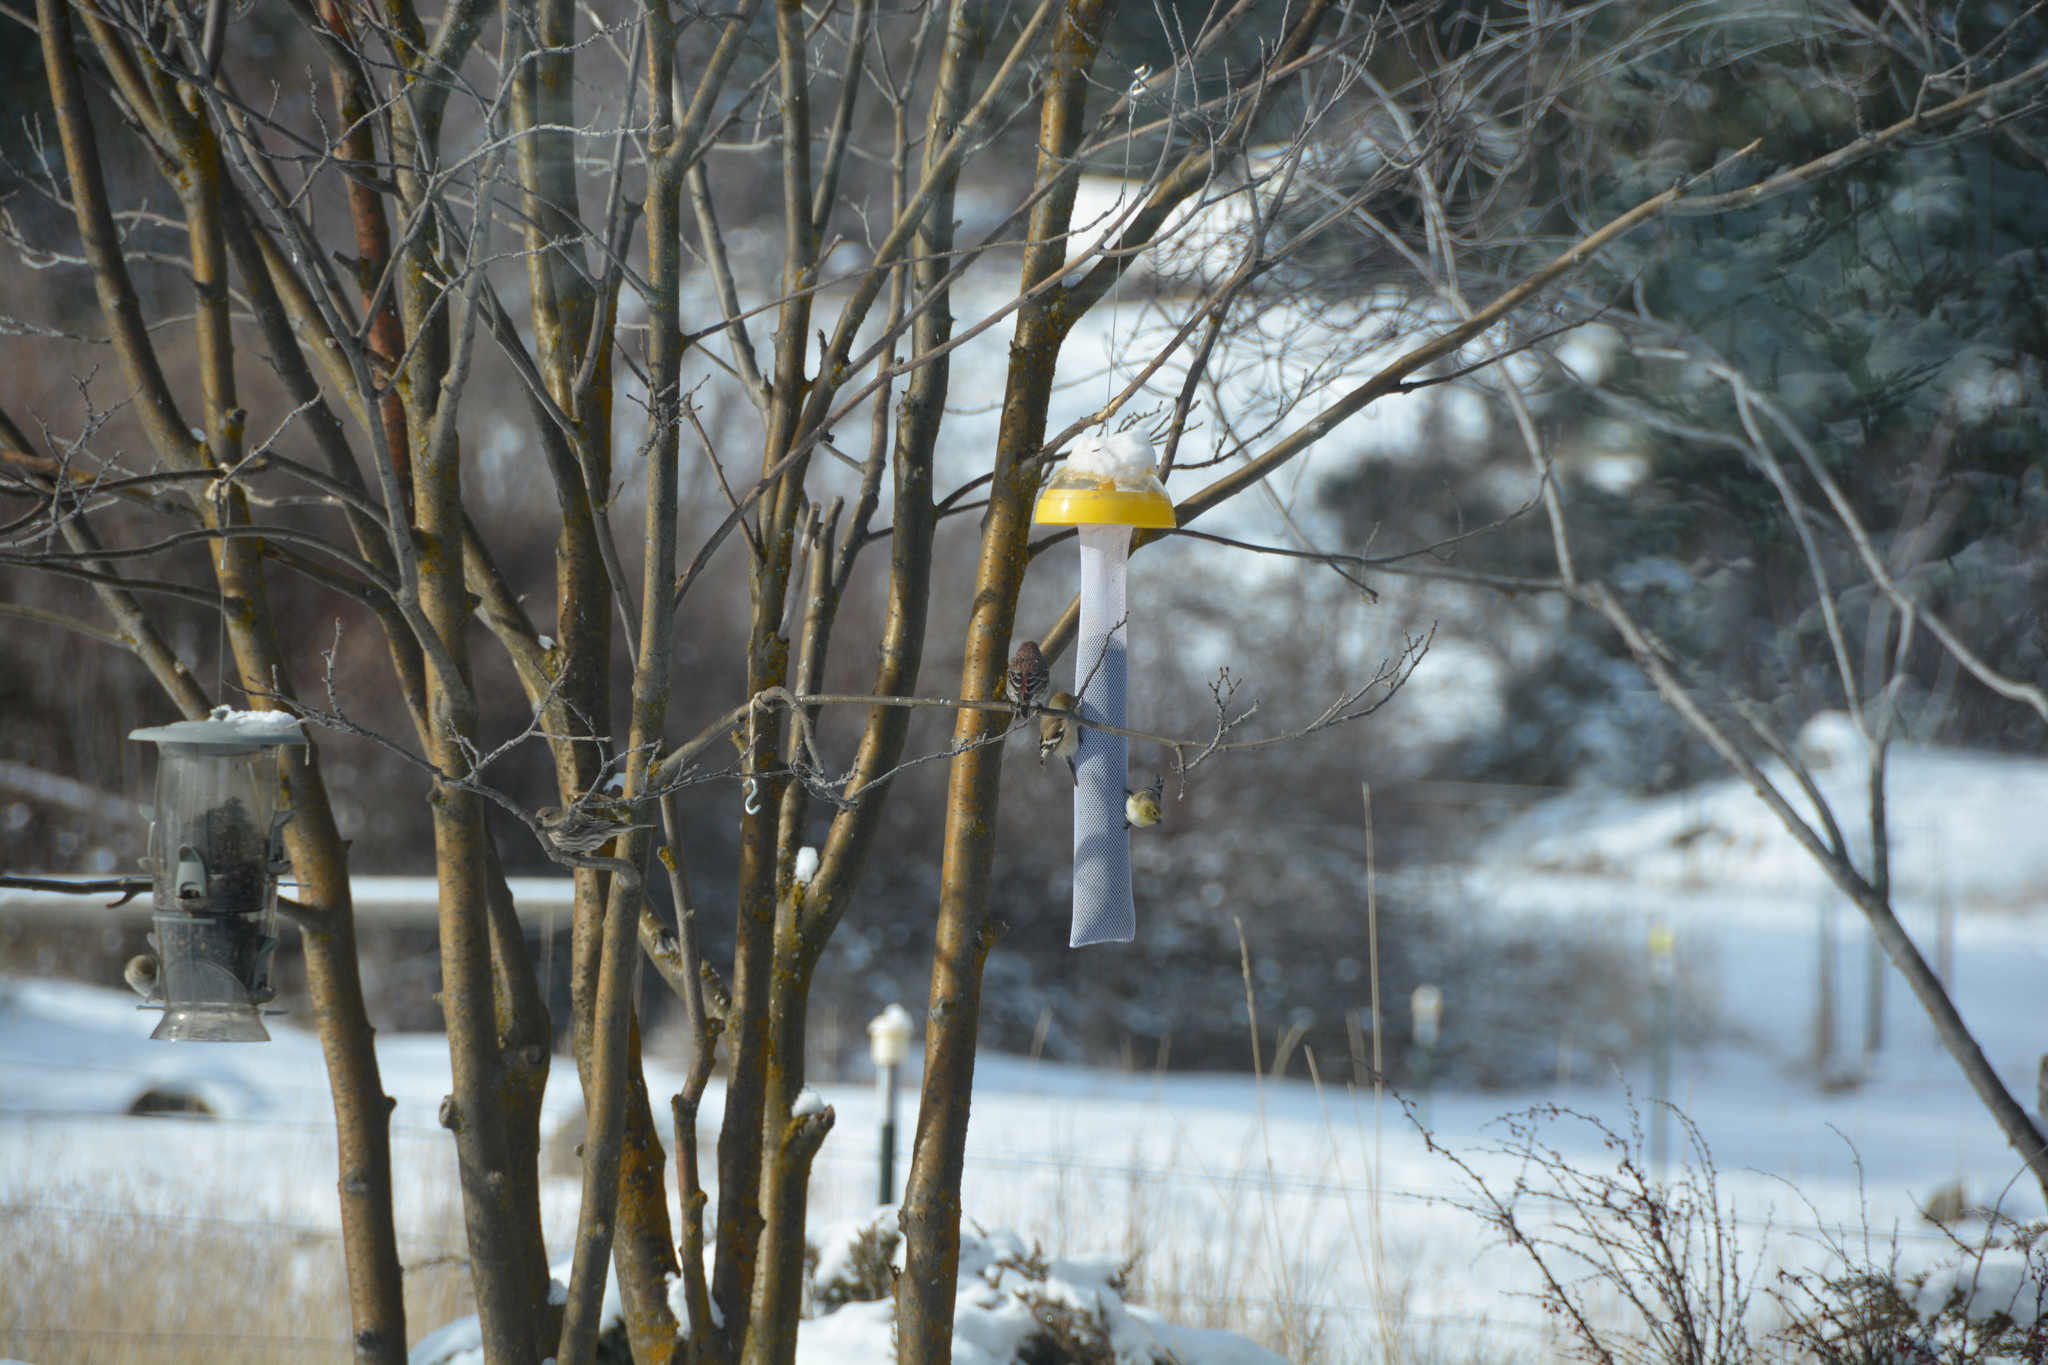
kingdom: Animalia
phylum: Chordata
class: Aves
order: Passeriformes
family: Fringillidae
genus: Spinus
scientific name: Spinus tristis
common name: American goldfinch
